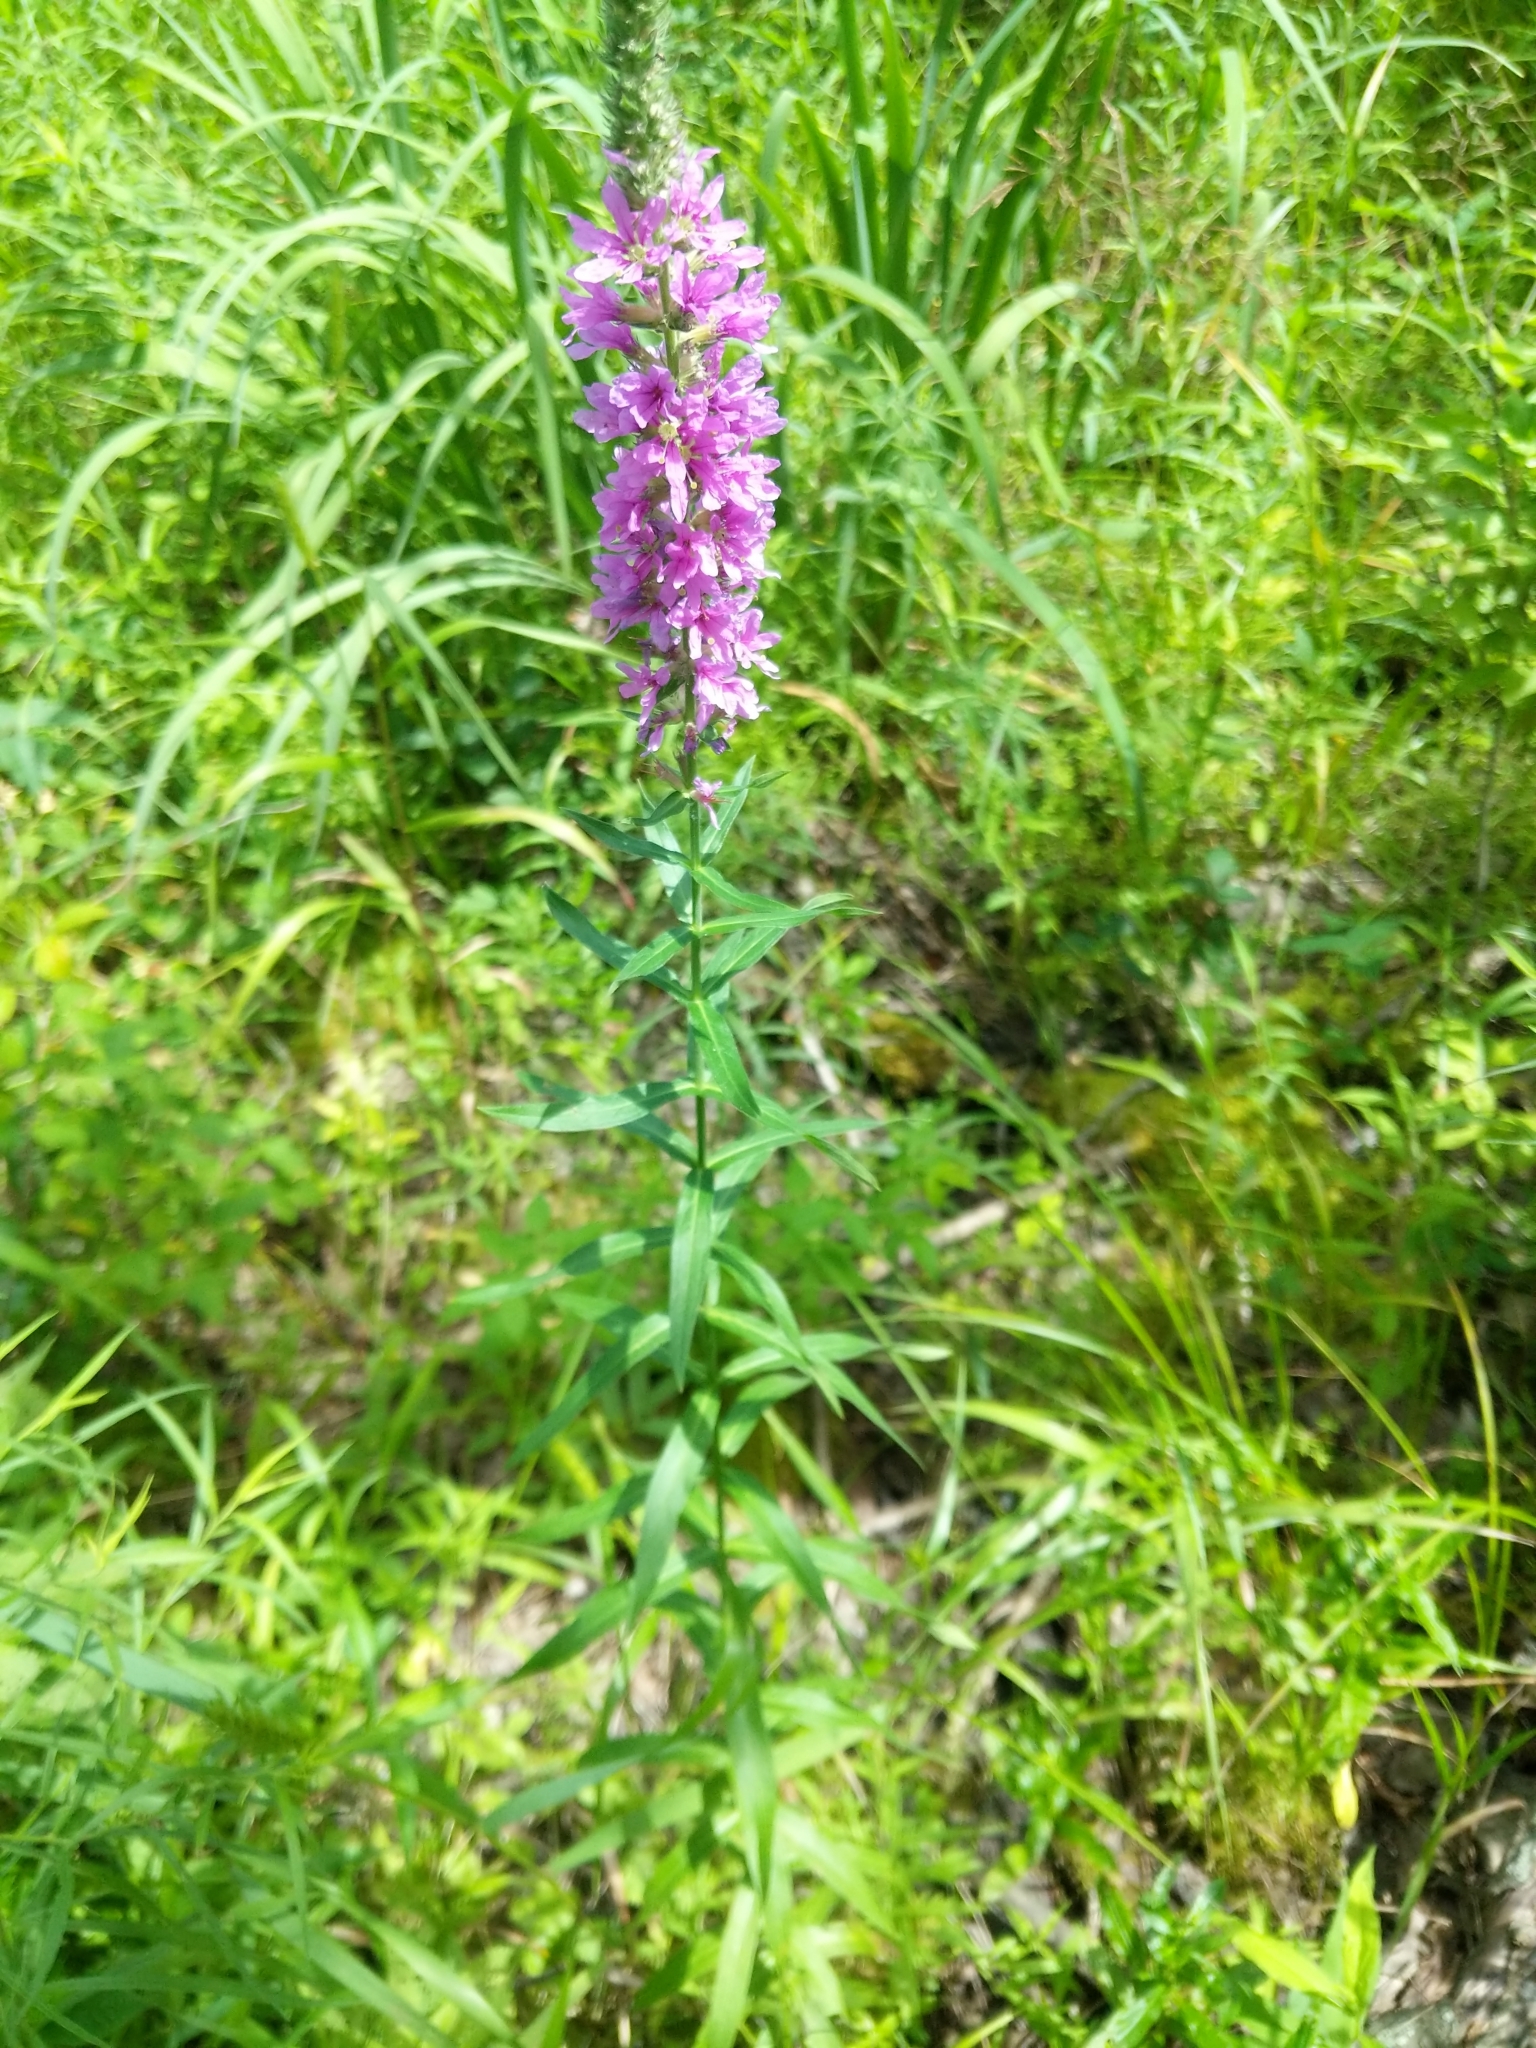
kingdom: Plantae
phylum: Tracheophyta
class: Magnoliopsida
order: Myrtales
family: Lythraceae
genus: Lythrum
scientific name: Lythrum salicaria
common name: Purple loosestrife
